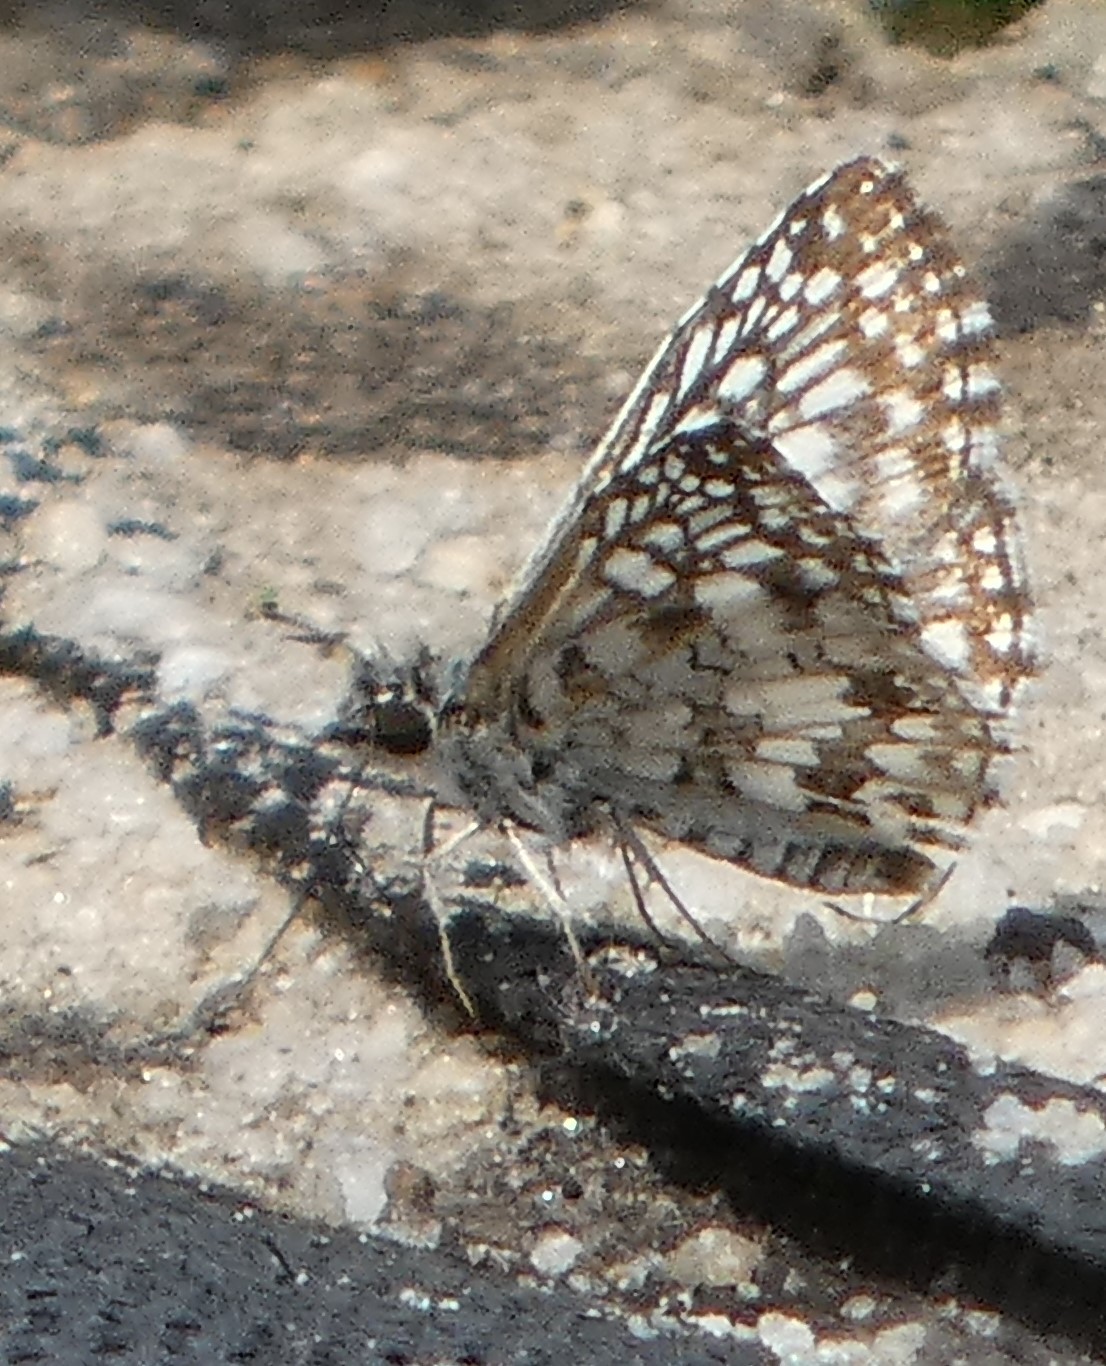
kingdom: Animalia
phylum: Arthropoda
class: Insecta
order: Lepidoptera
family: Hesperiidae
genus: Pyrgus
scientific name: Pyrgus oileus
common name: Tropical checkered-skipper
